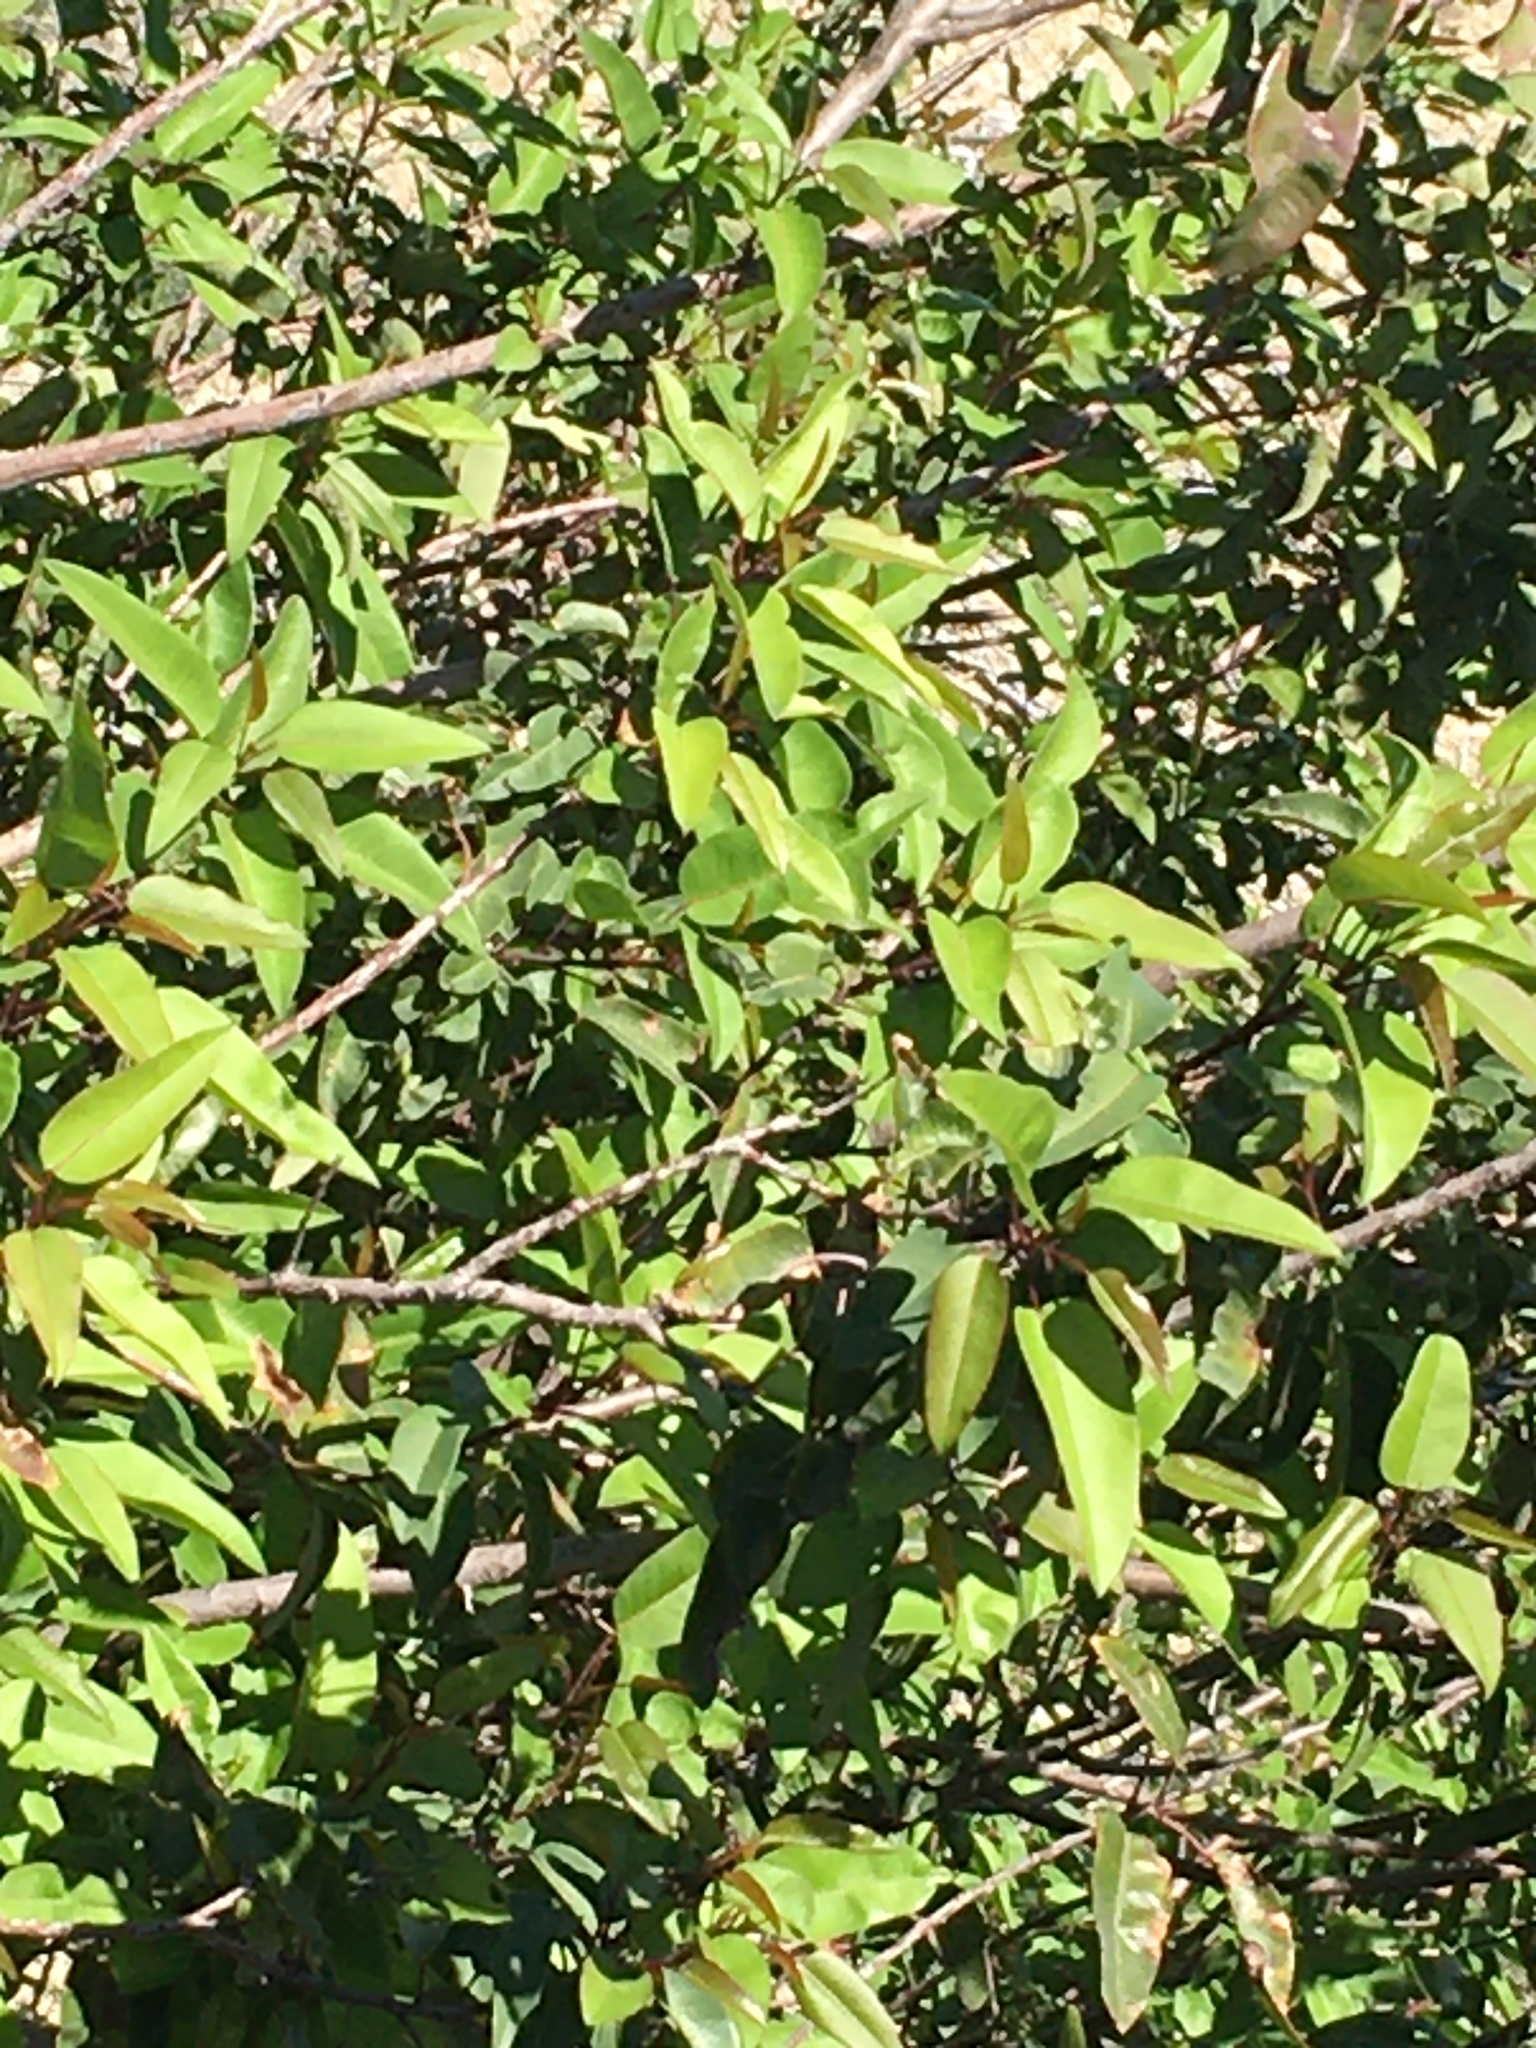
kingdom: Plantae
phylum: Tracheophyta
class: Magnoliopsida
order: Sapindales
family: Anacardiaceae
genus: Malosma
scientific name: Malosma laurina
